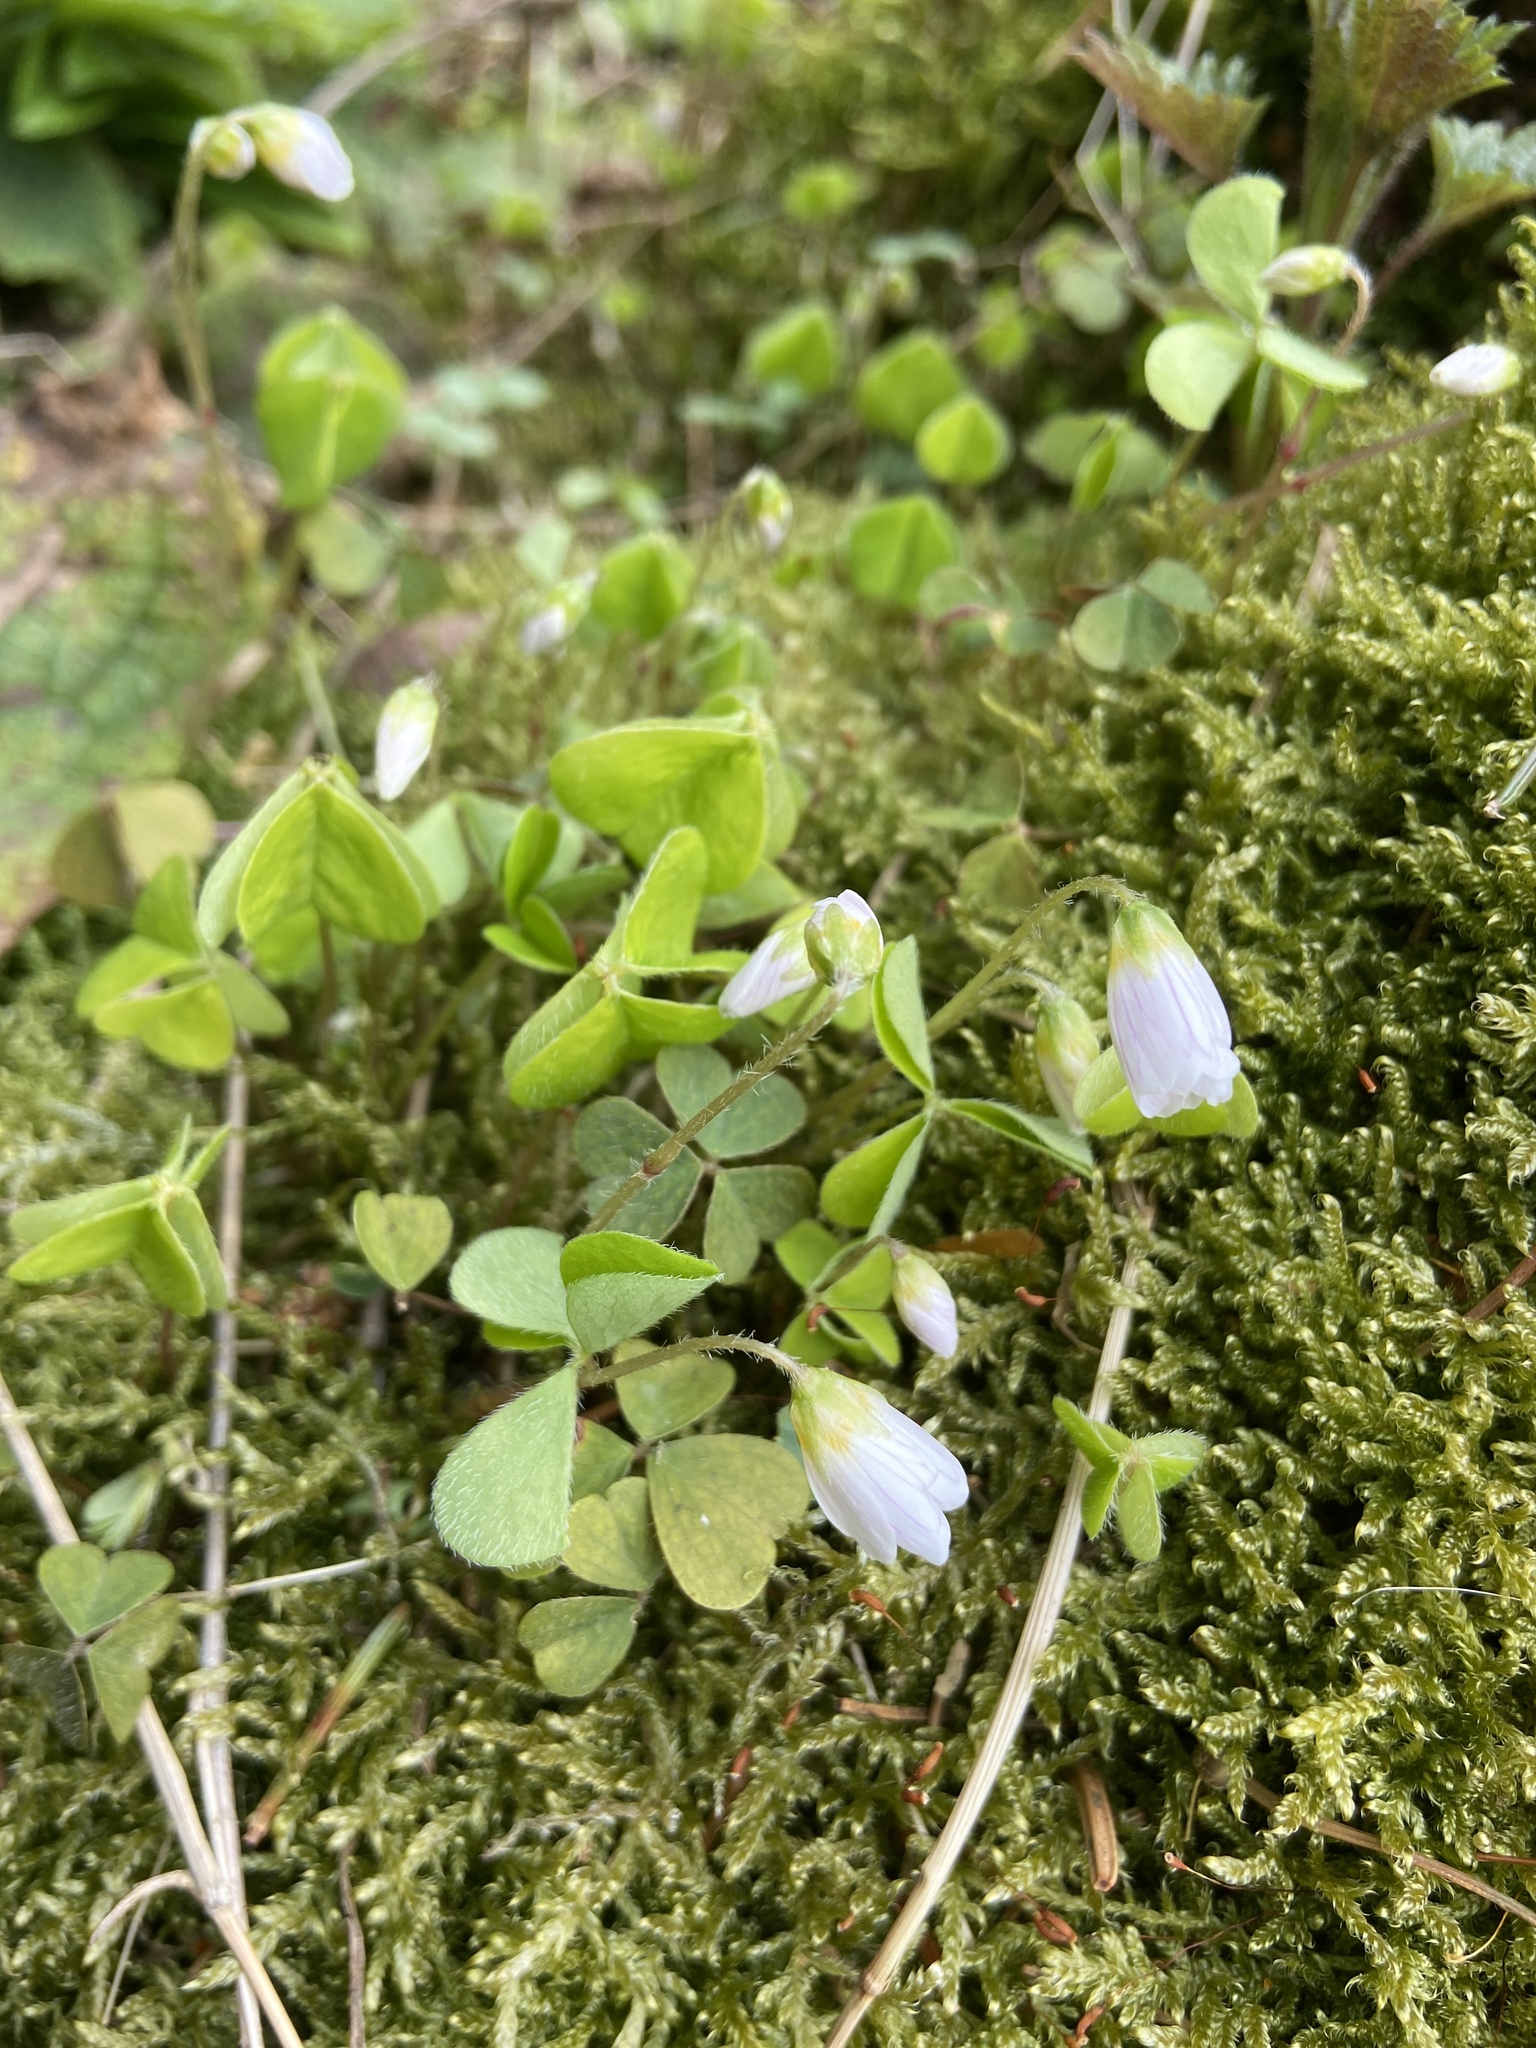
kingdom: Plantae
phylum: Tracheophyta
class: Magnoliopsida
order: Oxalidales
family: Oxalidaceae
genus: Oxalis
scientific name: Oxalis acetosella
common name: Wood-sorrel
